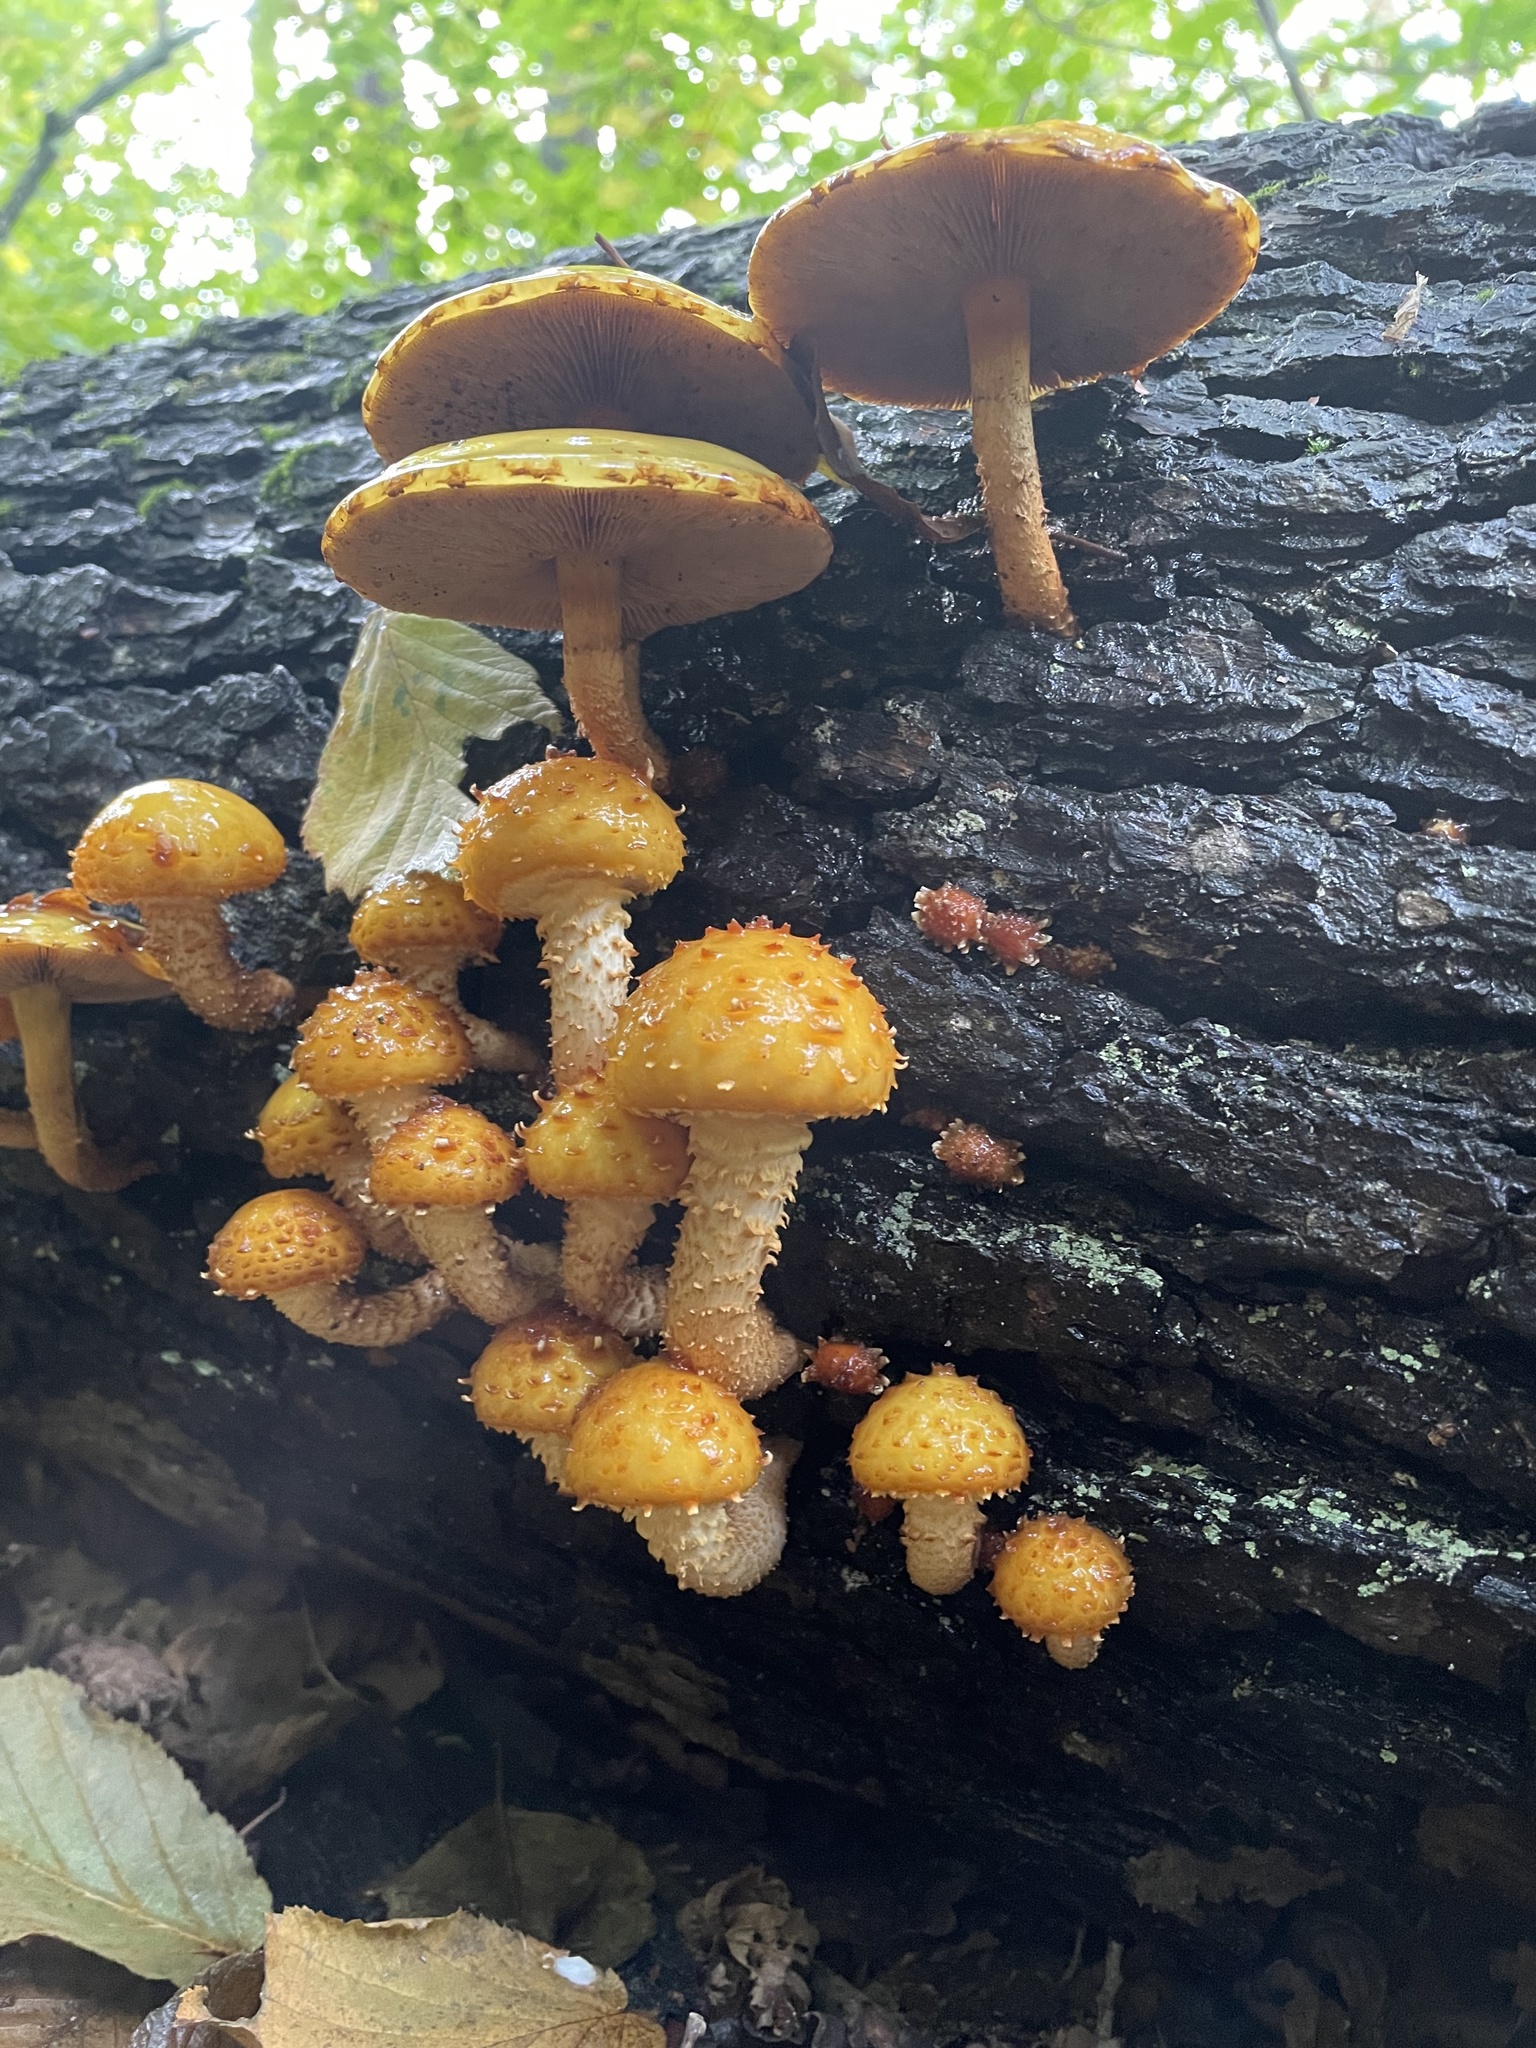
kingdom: Fungi
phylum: Basidiomycota
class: Agaricomycetes
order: Agaricales
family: Strophariaceae
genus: Pholiota
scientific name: Pholiota aurivella
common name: Golden scalycap
